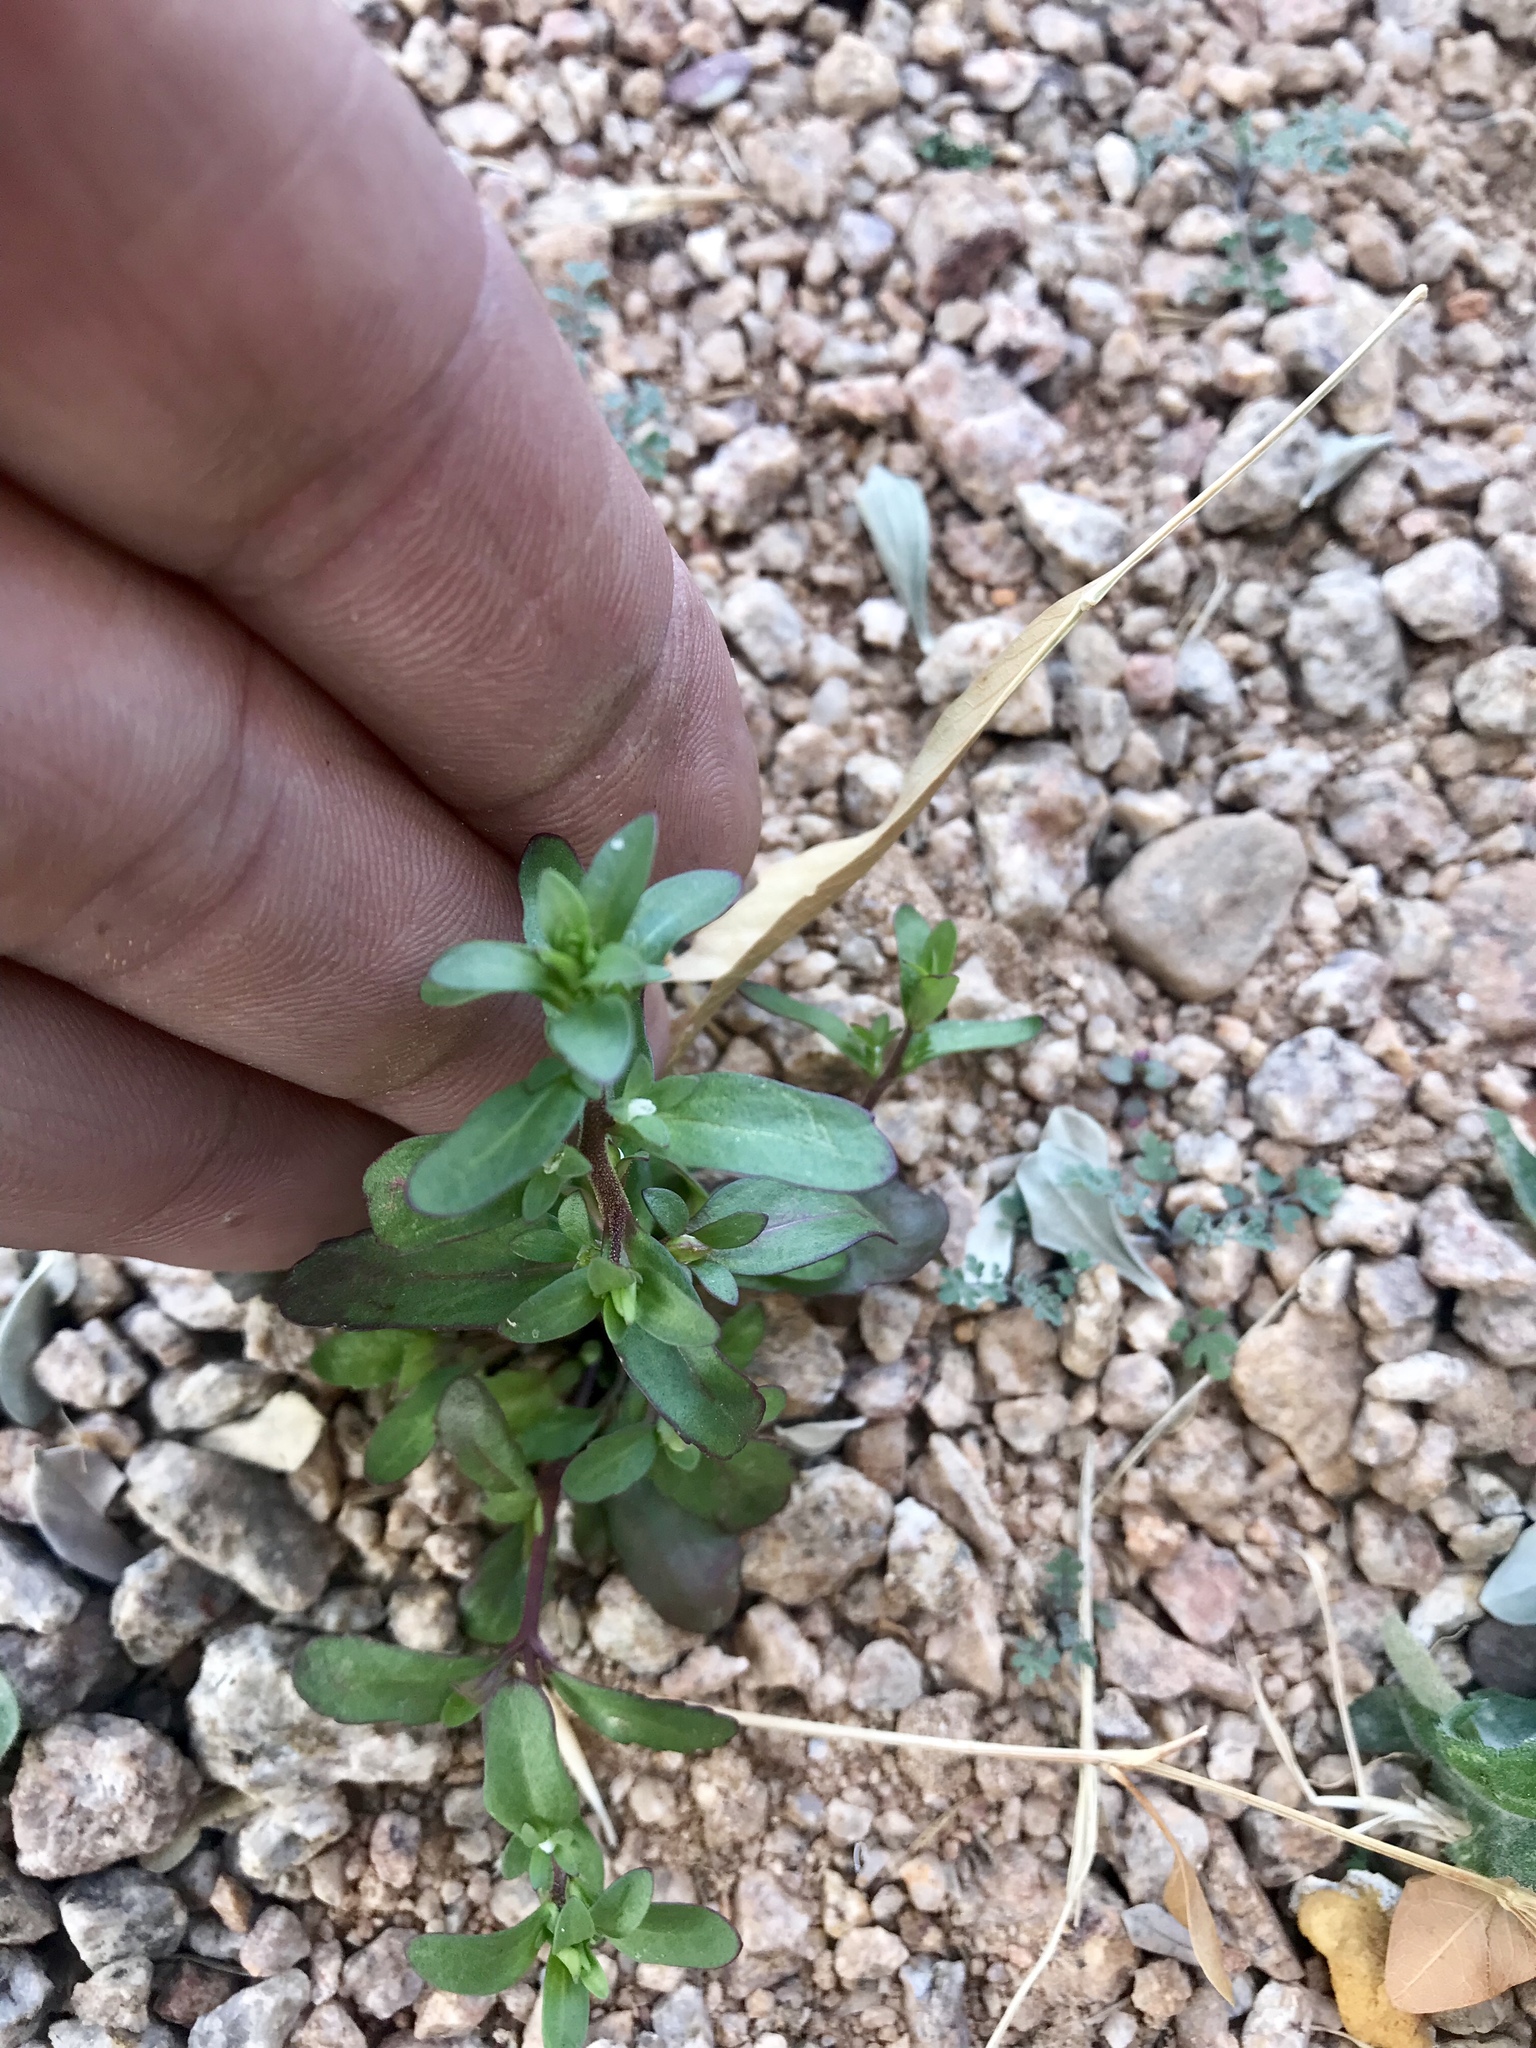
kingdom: Plantae
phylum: Tracheophyta
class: Magnoliopsida
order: Lamiales
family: Plantaginaceae
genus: Veronica
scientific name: Veronica peregrina
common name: Neckweed
